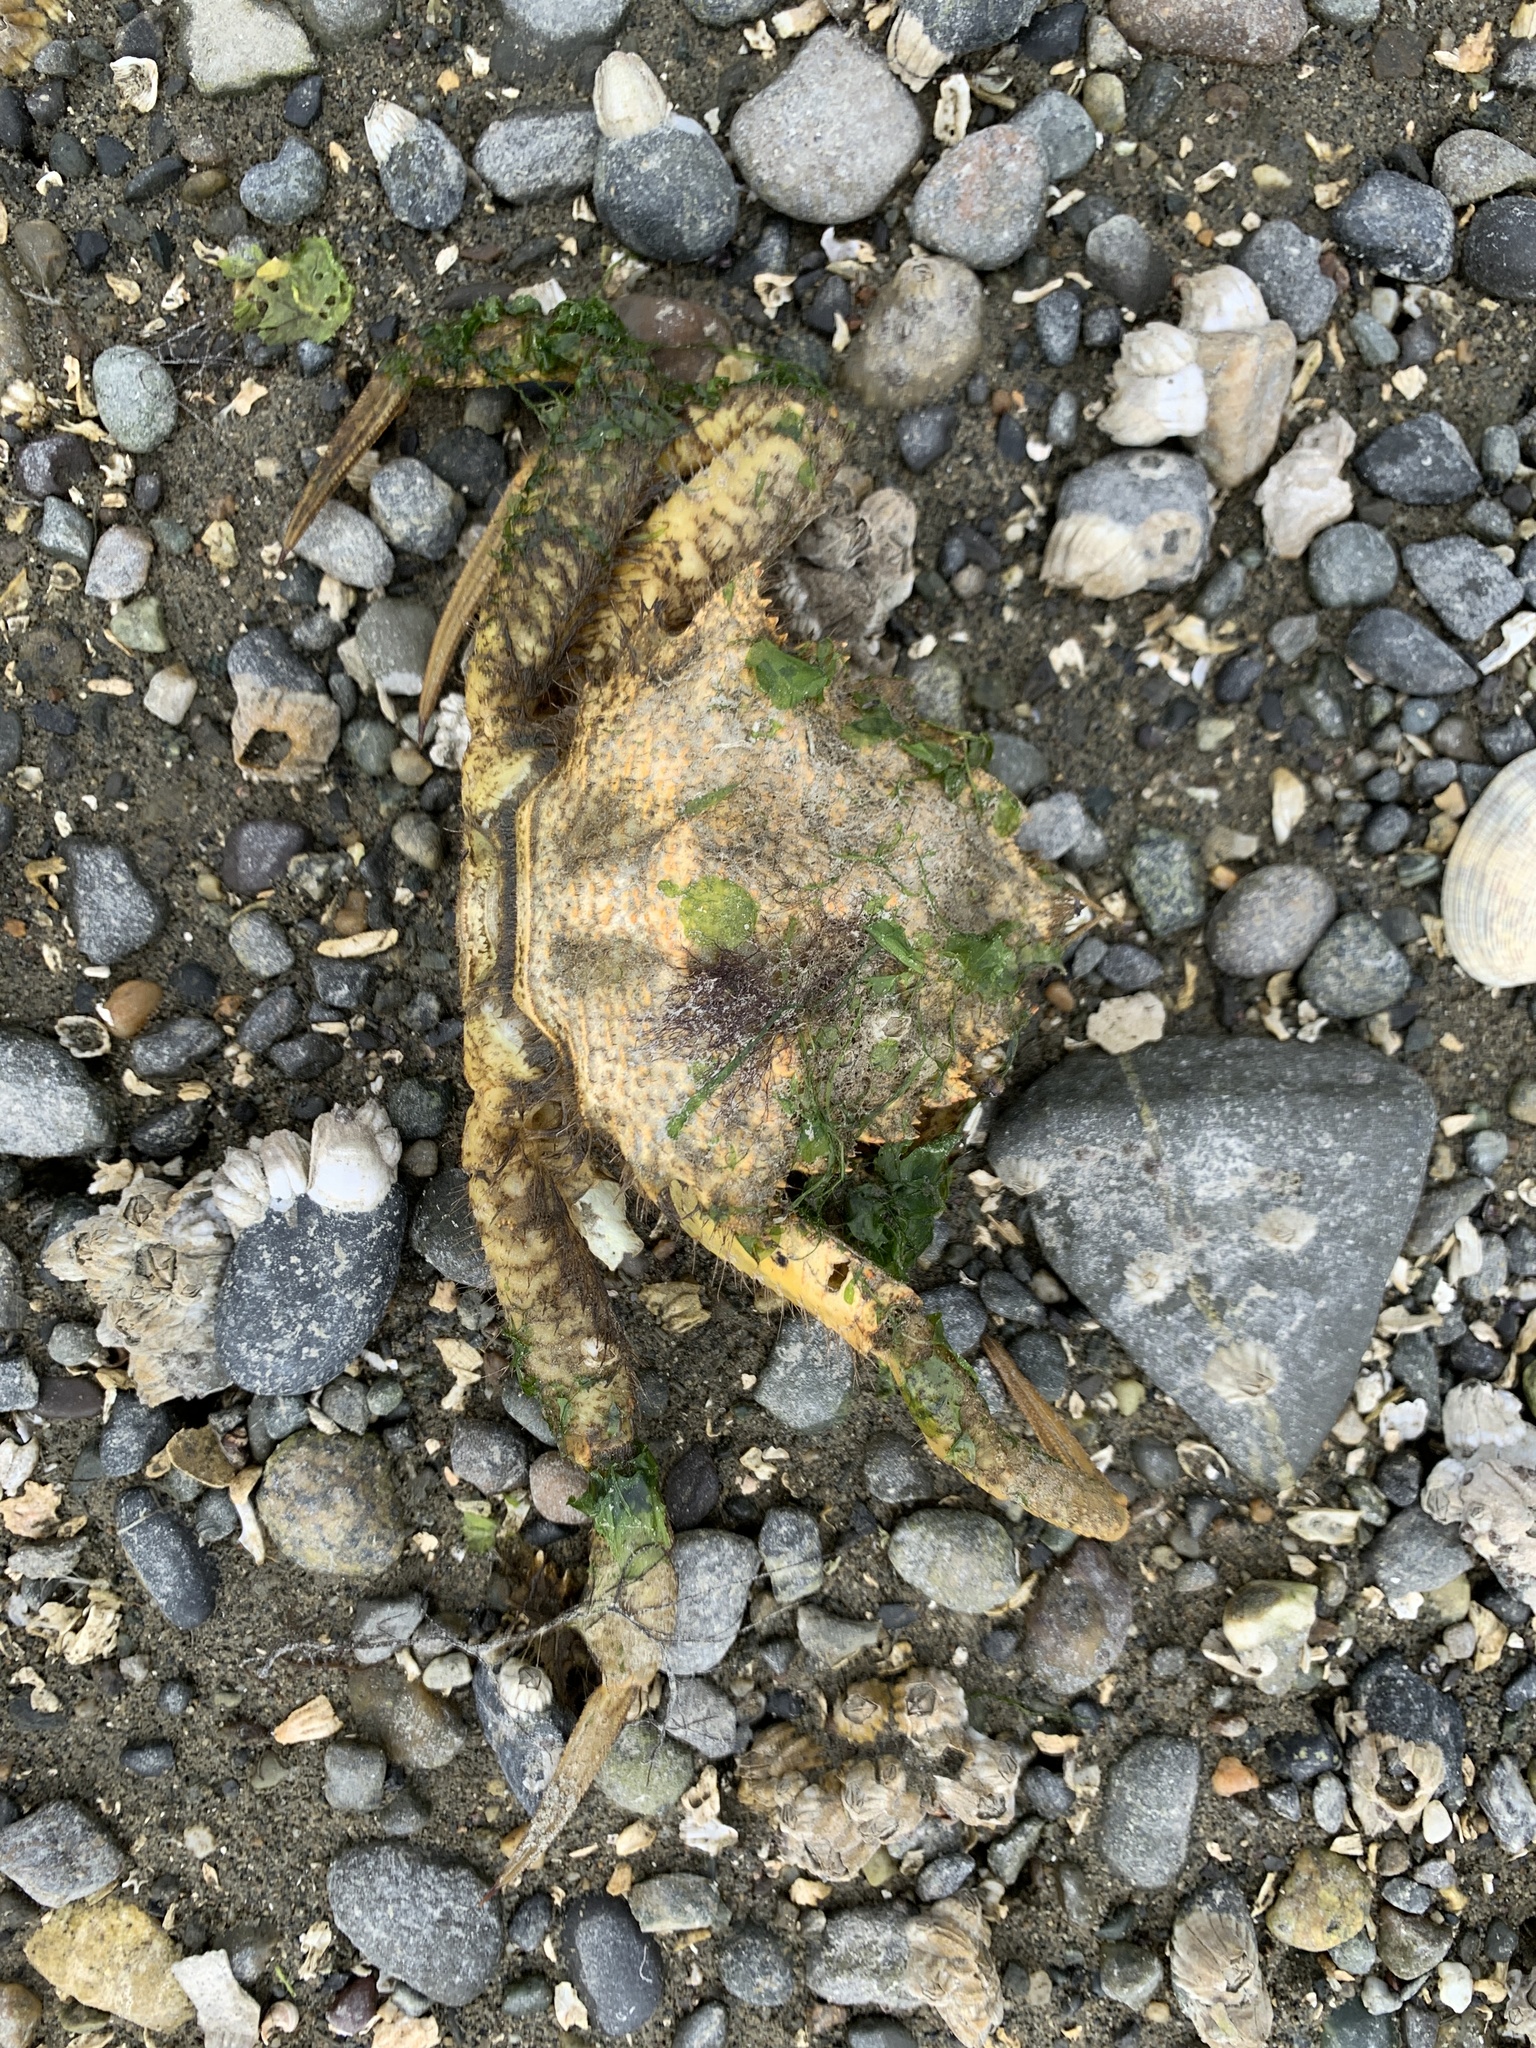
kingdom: Animalia
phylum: Arthropoda
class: Malacostraca
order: Decapoda
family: Cheiragonidae
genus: Telmessus
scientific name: Telmessus cheiragonus
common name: Helmet crab
